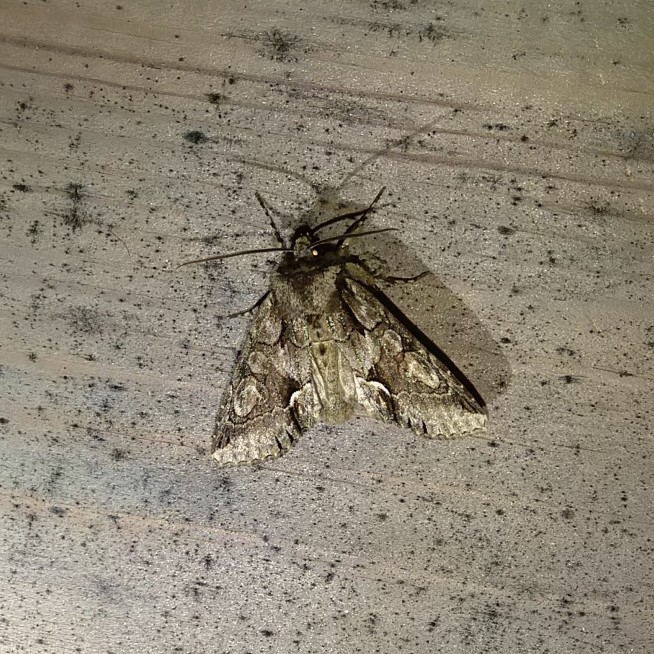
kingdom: Animalia
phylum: Arthropoda
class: Insecta
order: Lepidoptera
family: Noctuidae
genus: Allophyes
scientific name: Allophyes oxyacanthae
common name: Green-brindled crescent
